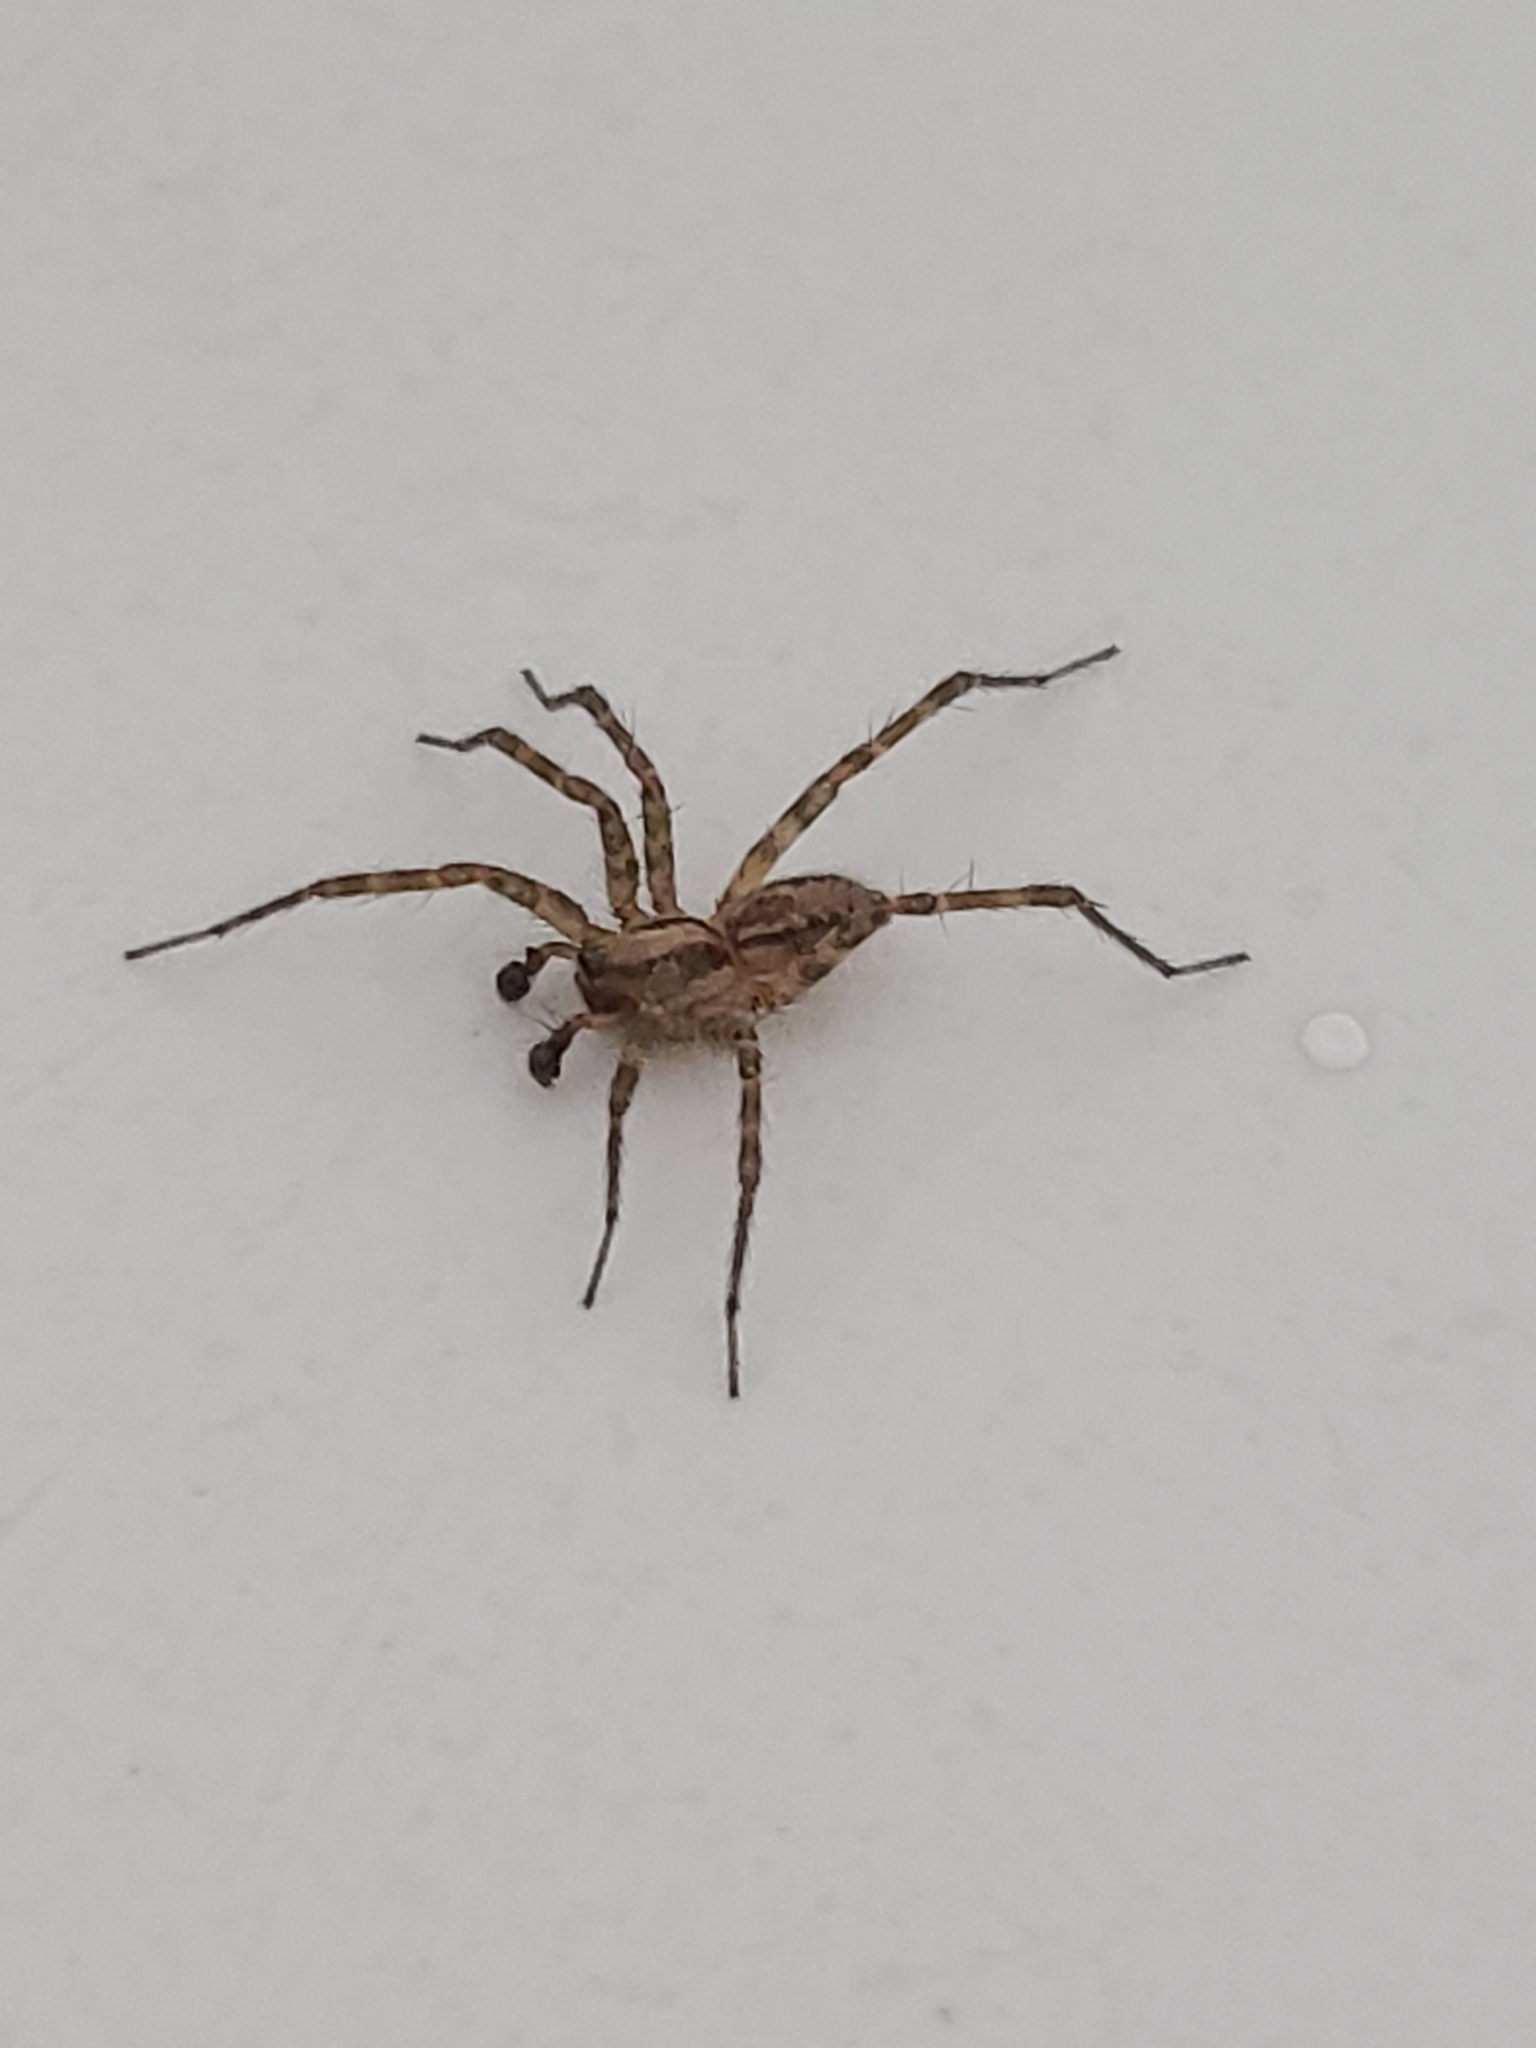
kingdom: Animalia
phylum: Arthropoda
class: Arachnida
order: Araneae
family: Agelenidae
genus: Hololena
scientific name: Hololena
